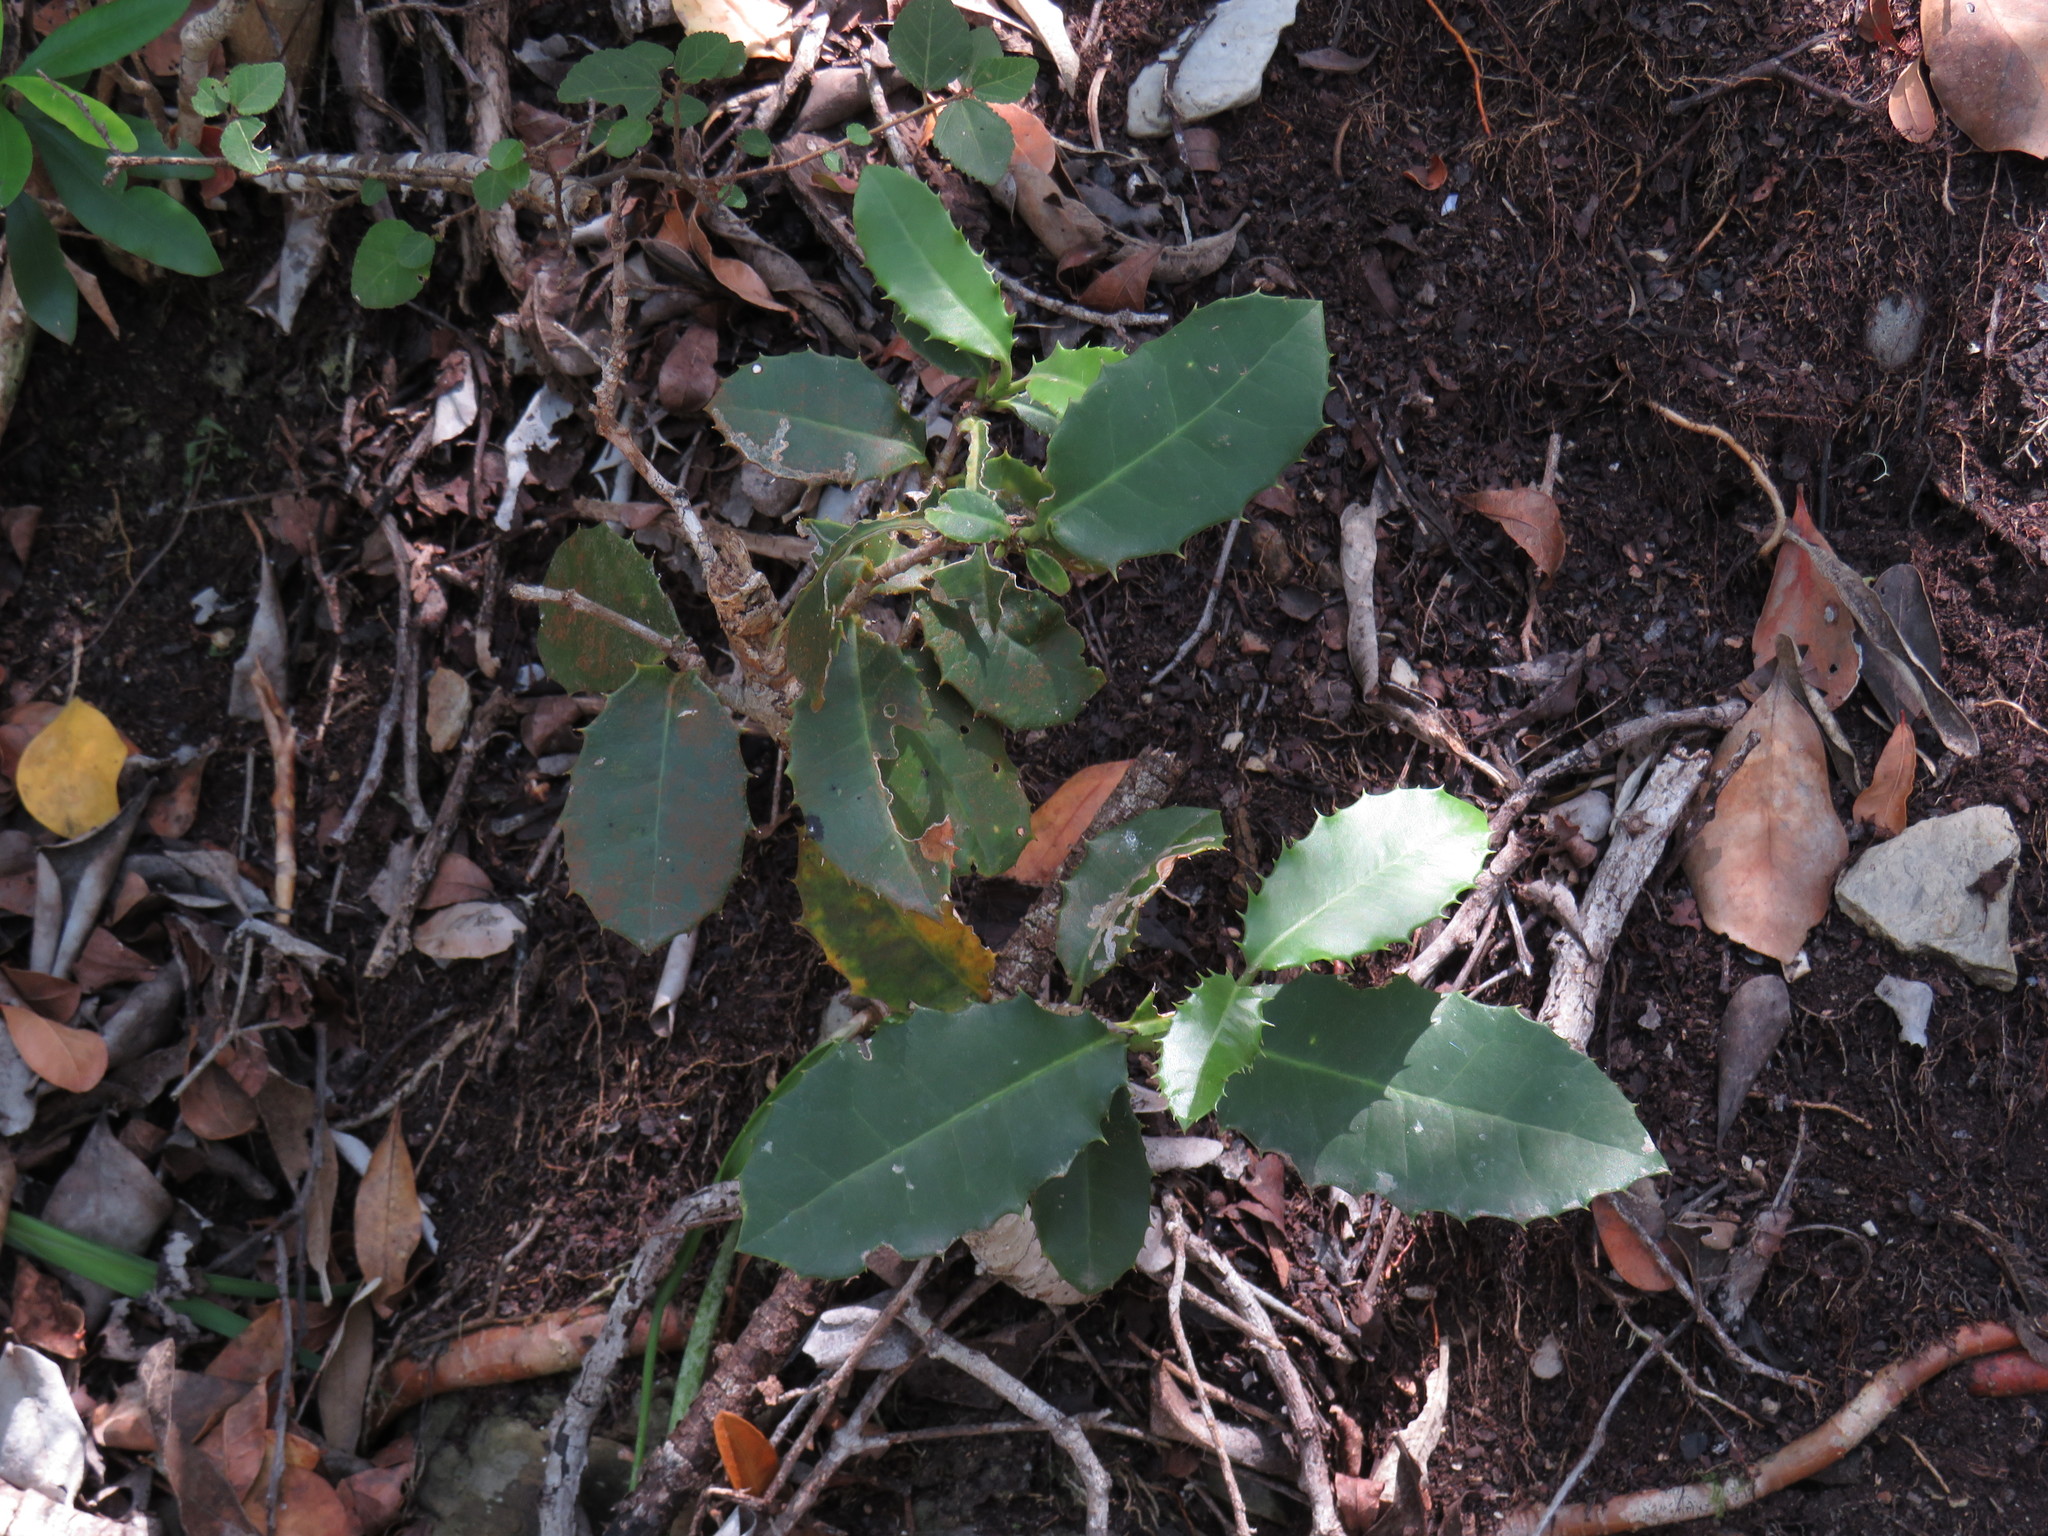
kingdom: Plantae
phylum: Tracheophyta
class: Magnoliopsida
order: Celastrales
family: Celastraceae
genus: Elaeodendron
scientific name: Elaeodendron croceum
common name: Saffron
